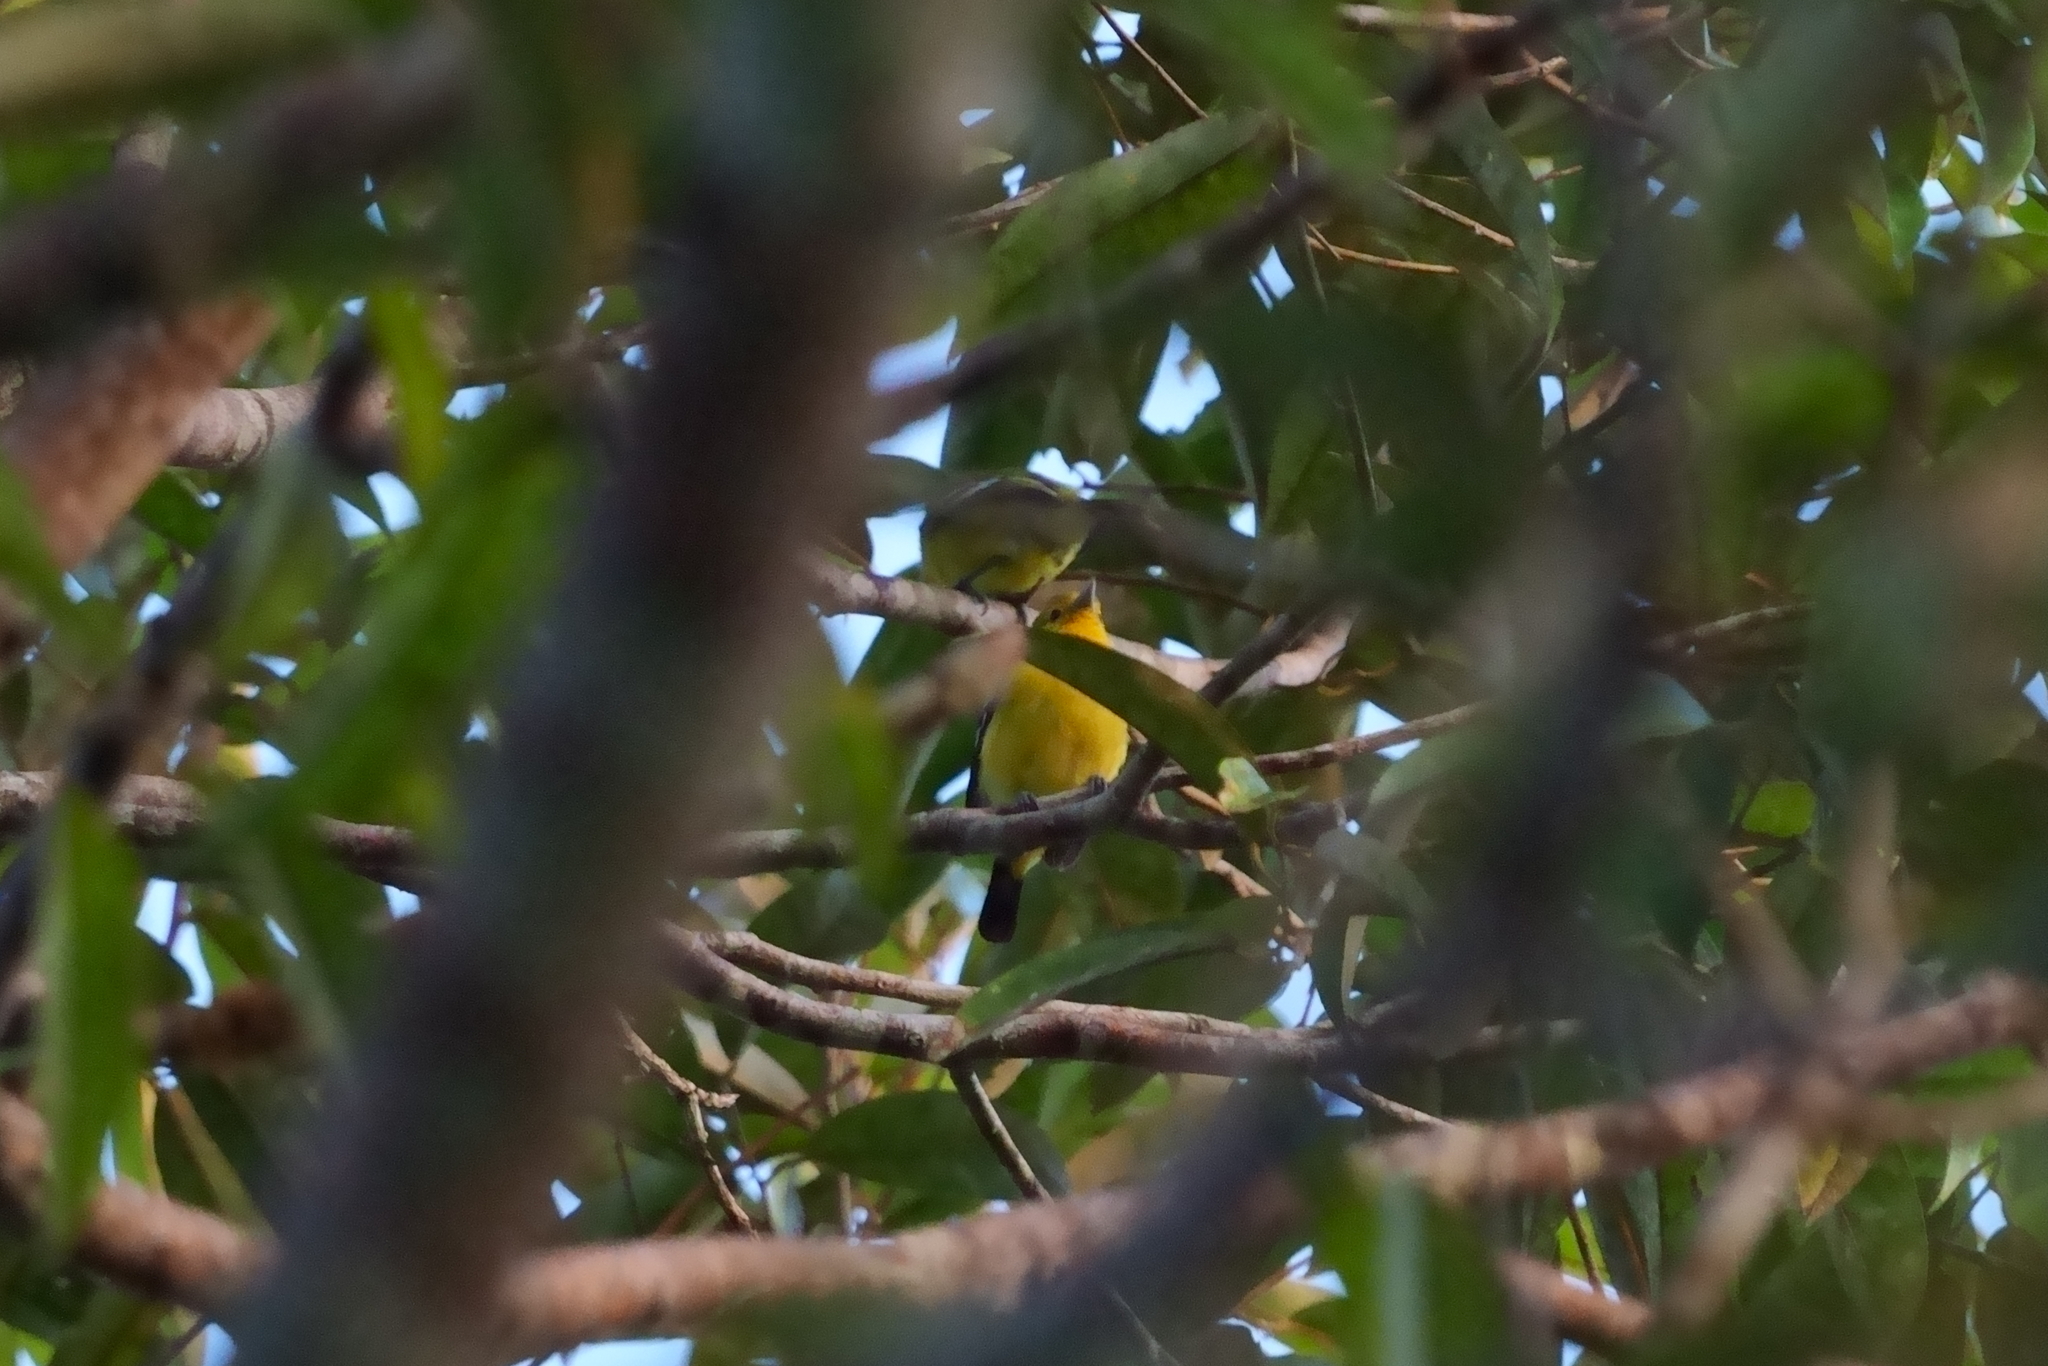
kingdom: Animalia
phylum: Chordata
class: Aves
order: Passeriformes
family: Aegithinidae
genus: Aegithina
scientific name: Aegithina tiphia
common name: Common iora
